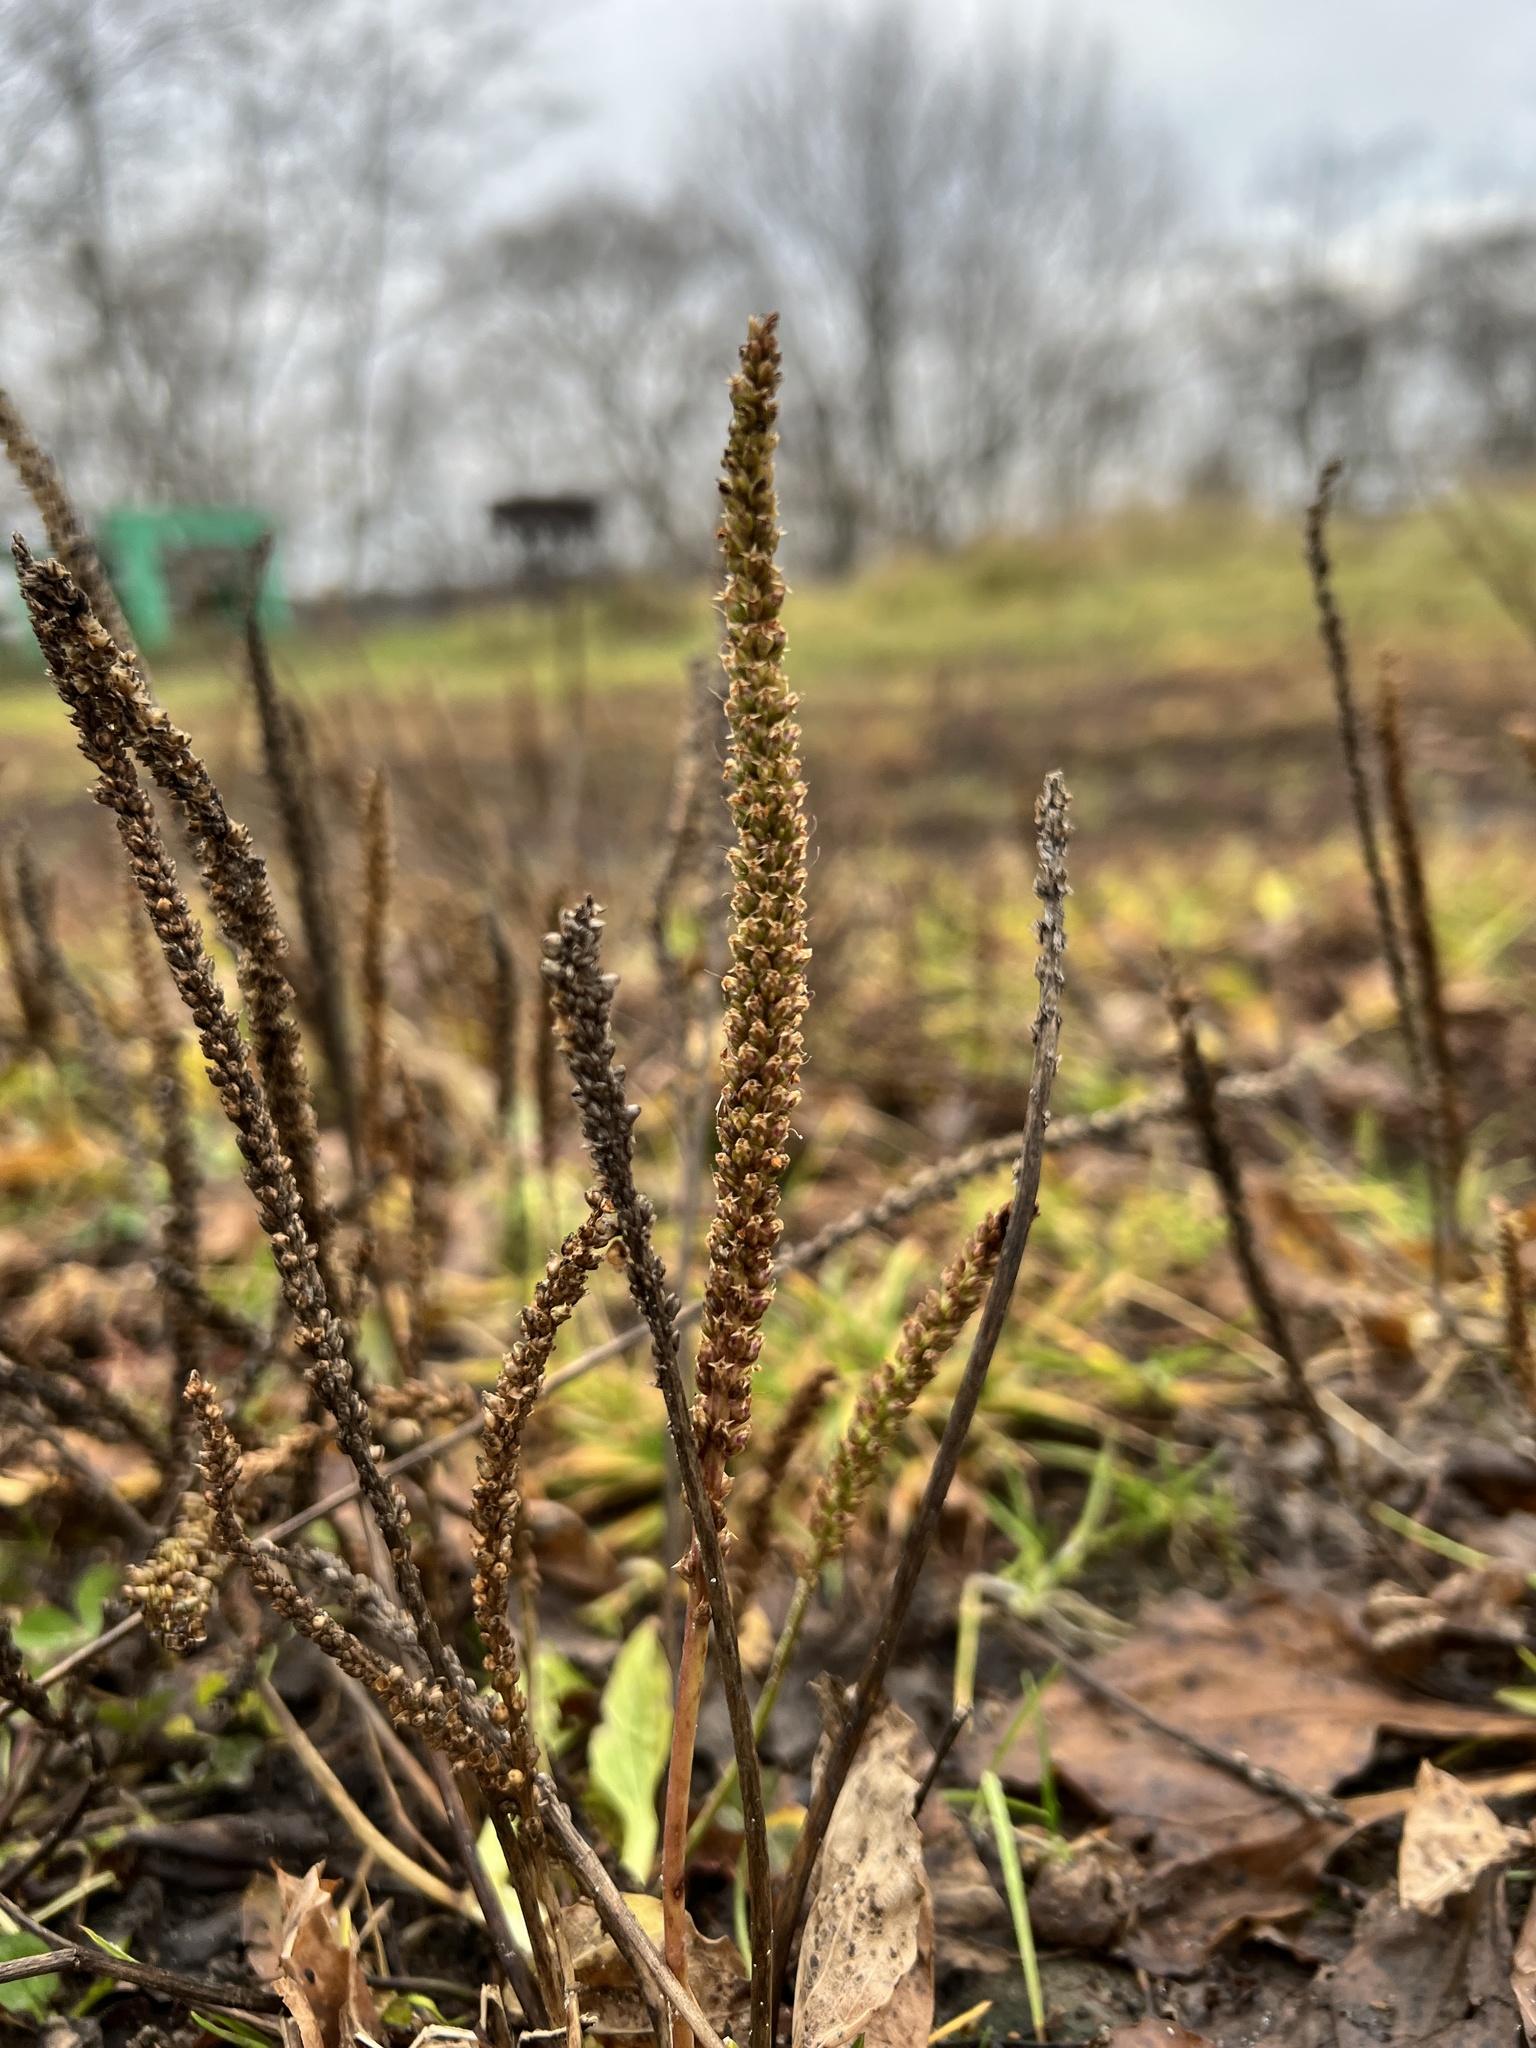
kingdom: Plantae
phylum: Tracheophyta
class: Magnoliopsida
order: Lamiales
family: Plantaginaceae
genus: Plantago
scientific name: Plantago major
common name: Common plantain
